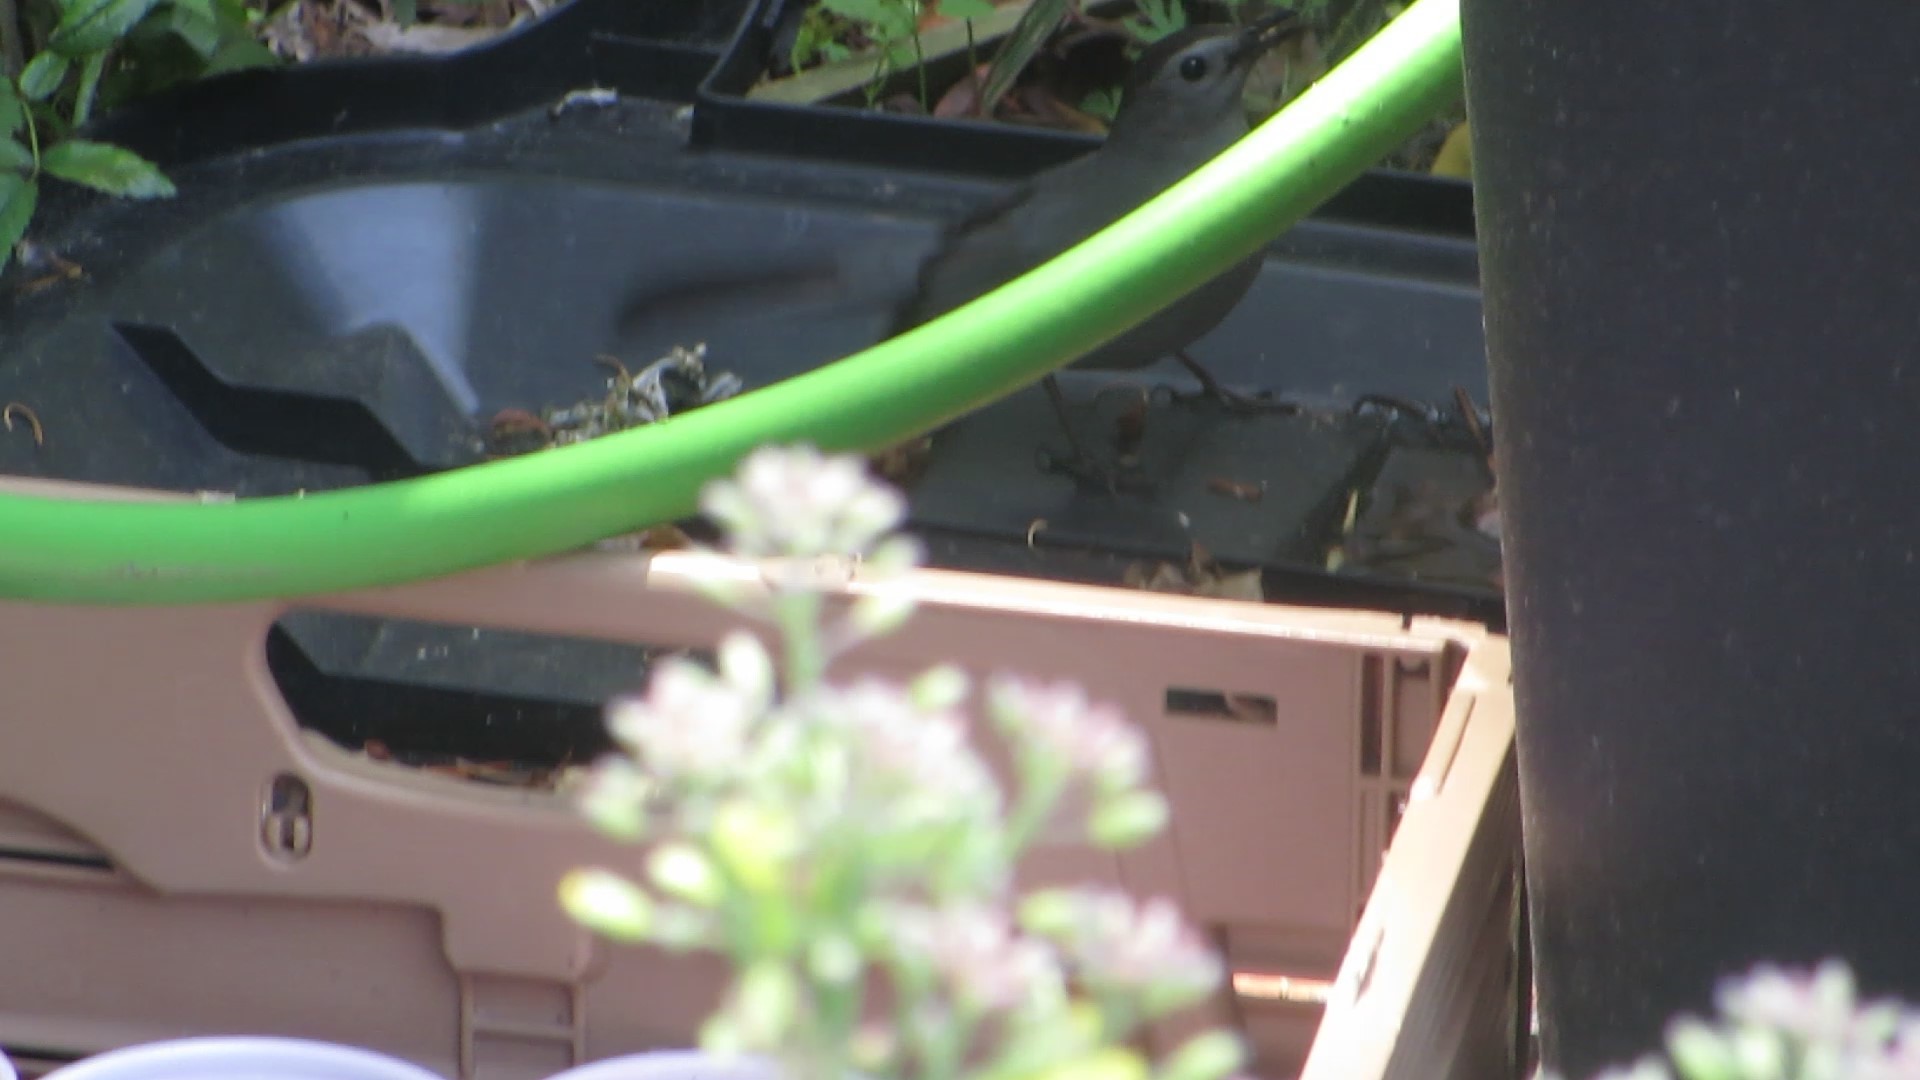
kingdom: Animalia
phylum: Chordata
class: Aves
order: Passeriformes
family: Mimidae
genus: Dumetella
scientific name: Dumetella carolinensis
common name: Gray catbird
